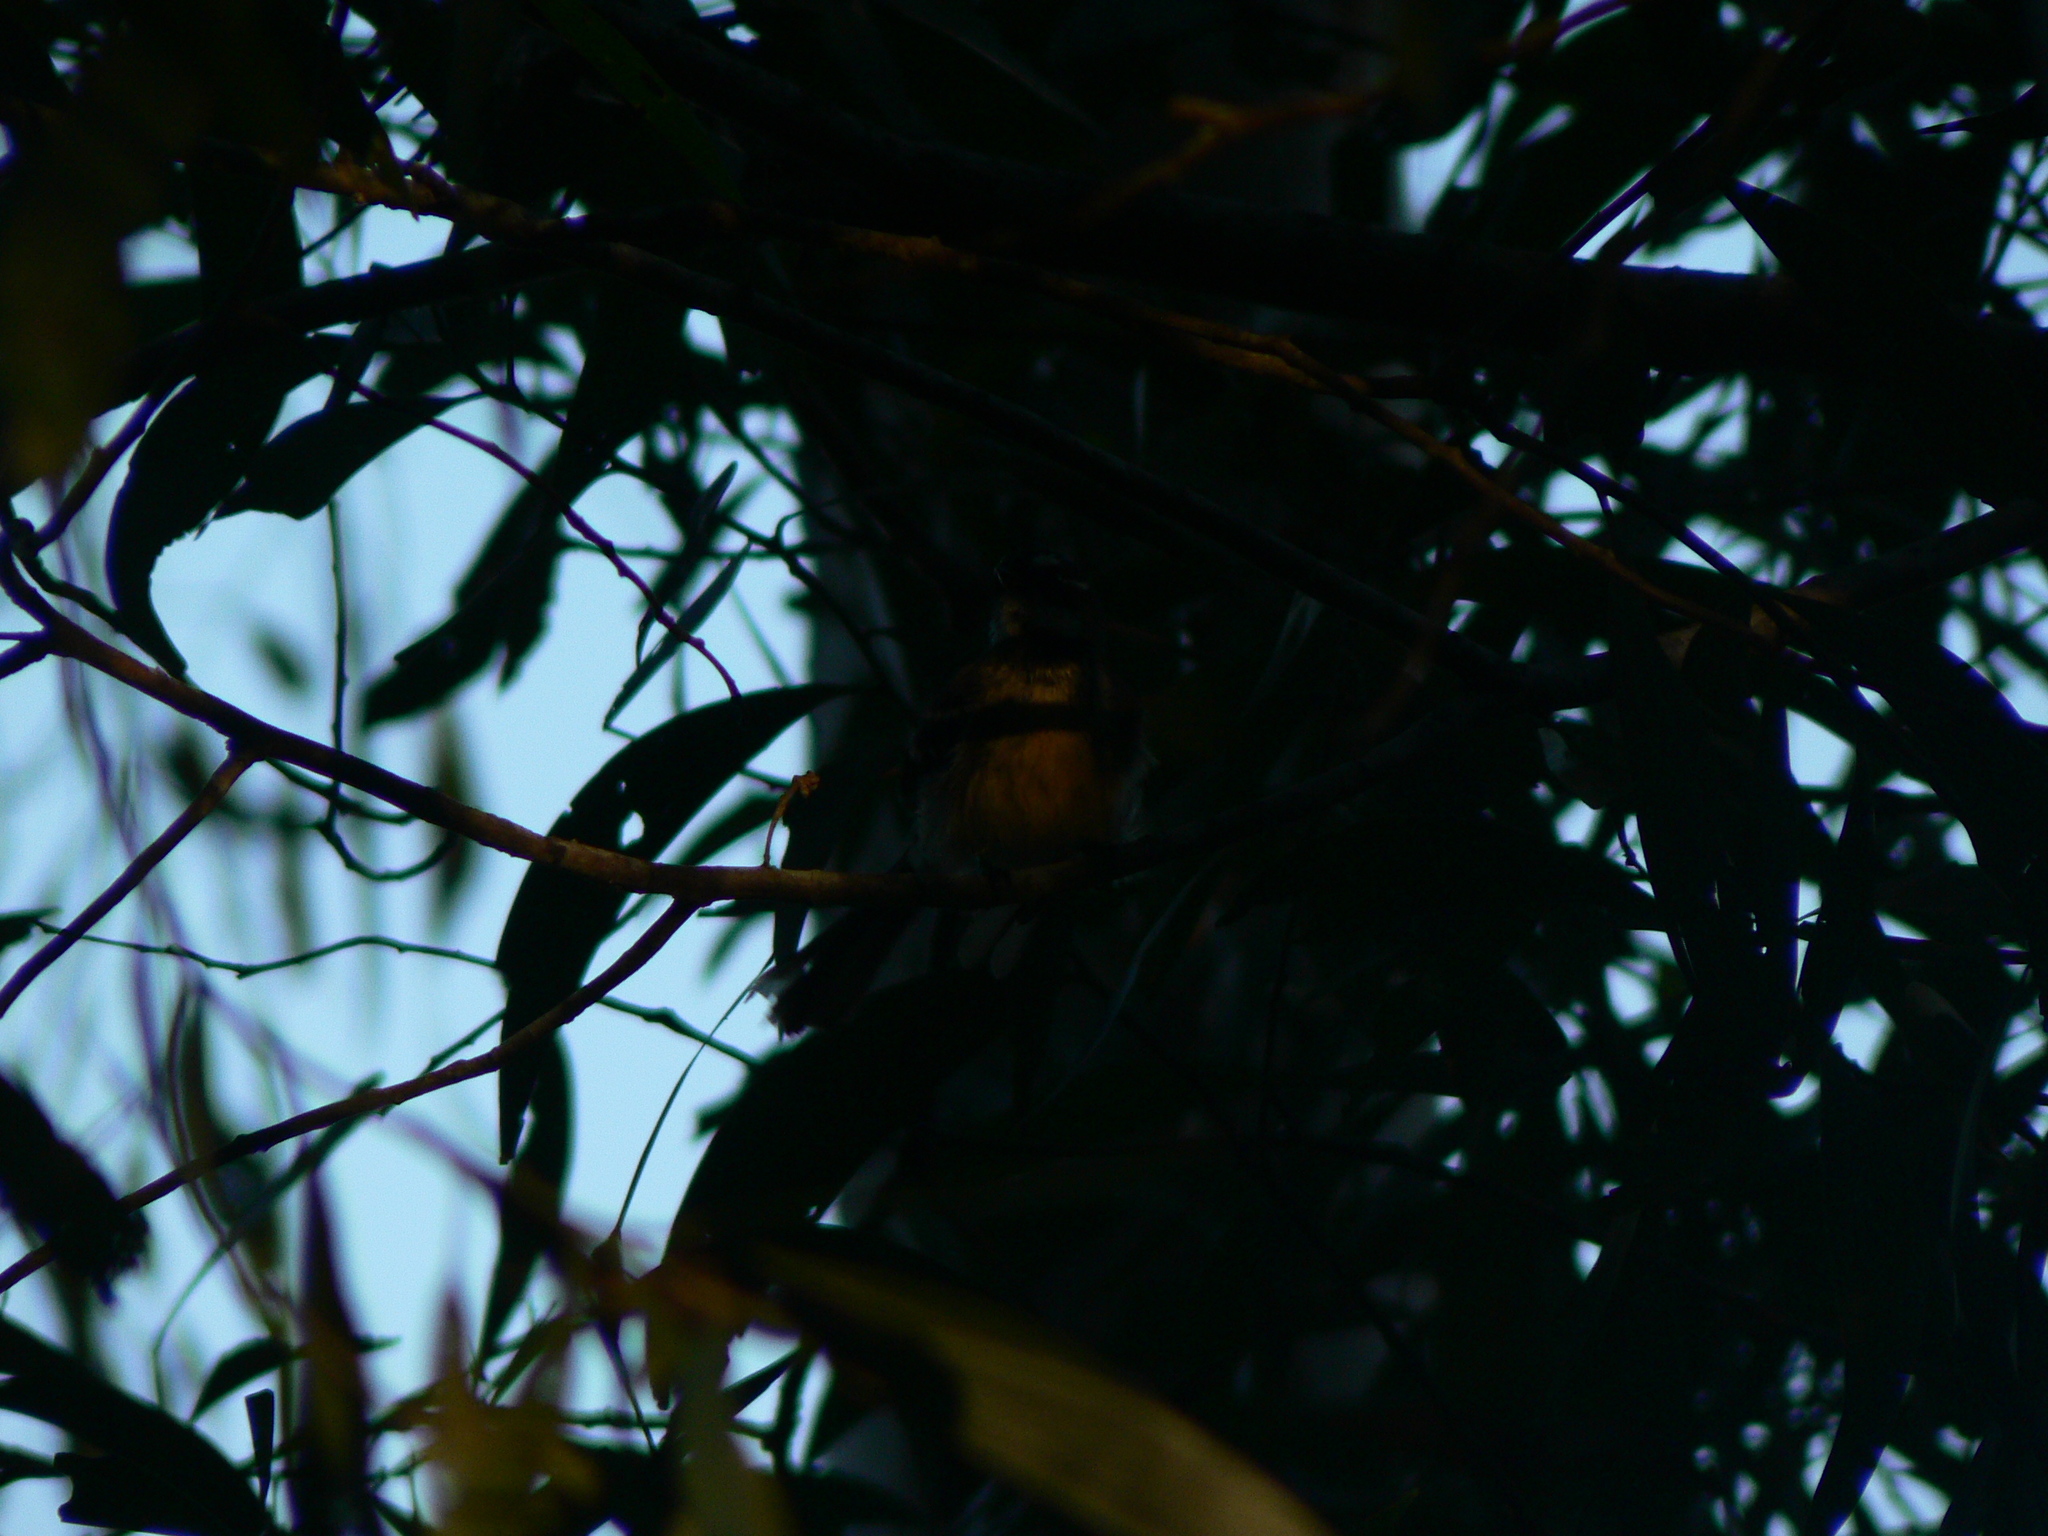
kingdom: Animalia
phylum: Chordata
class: Aves
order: Passeriformes
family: Rhipiduridae
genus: Rhipidura
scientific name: Rhipidura albiscapa
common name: Grey fantail
